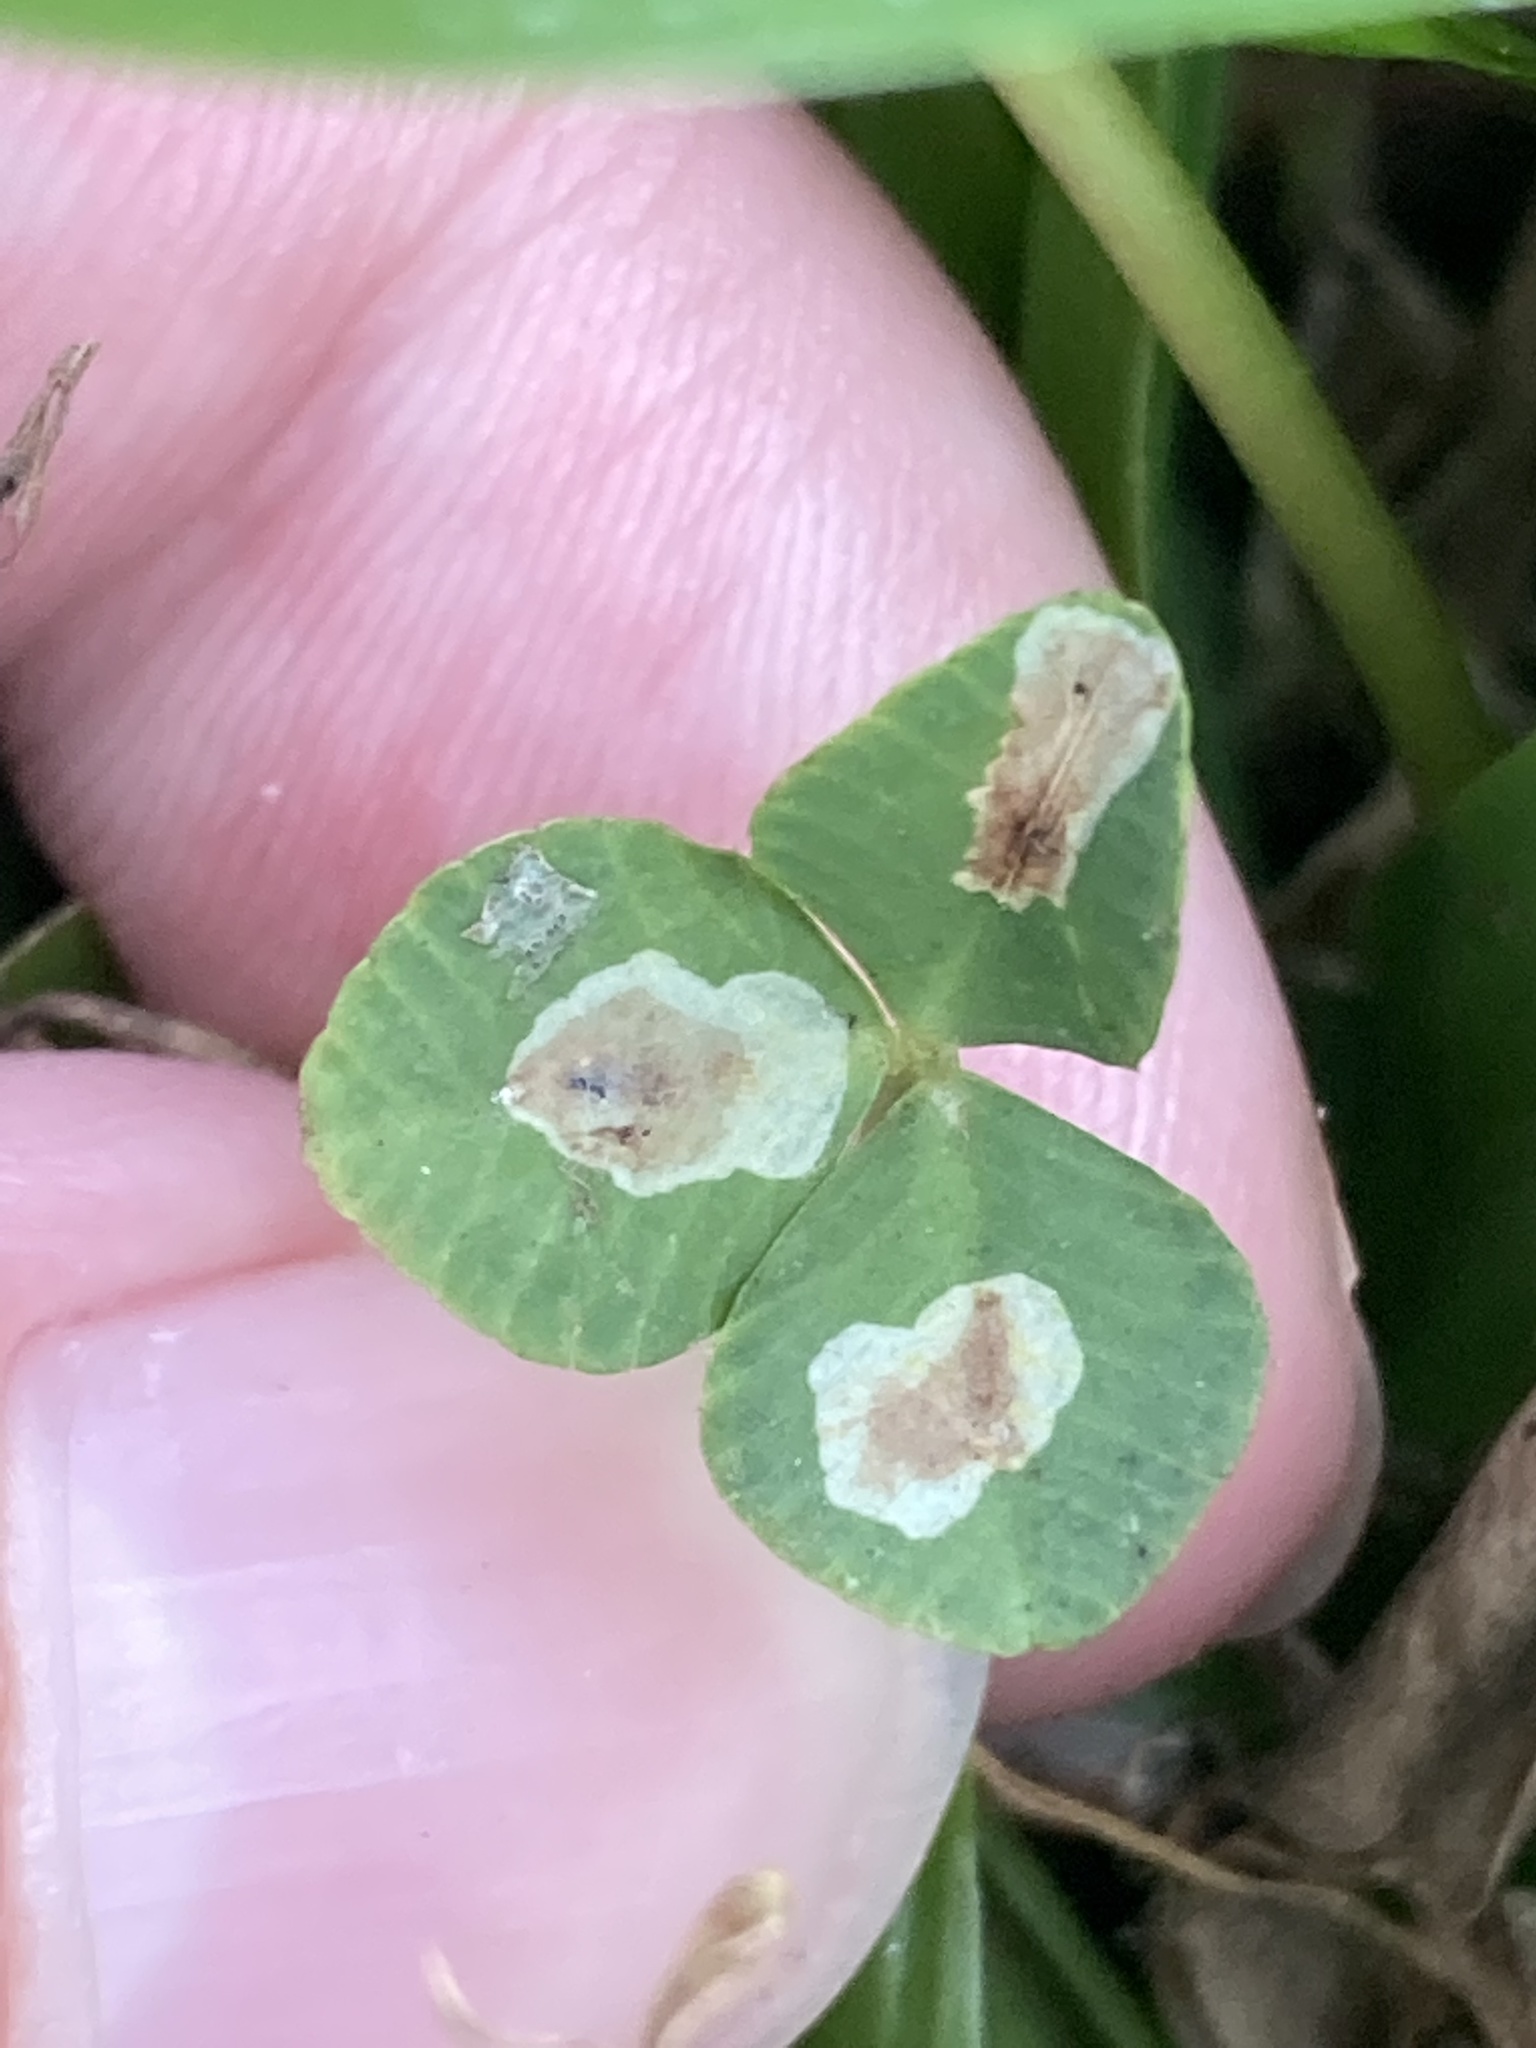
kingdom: Animalia
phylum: Arthropoda
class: Insecta
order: Lepidoptera
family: Gracillariidae
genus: Porphyrosela
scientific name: Porphyrosela minuta
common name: Leaf miner moth
